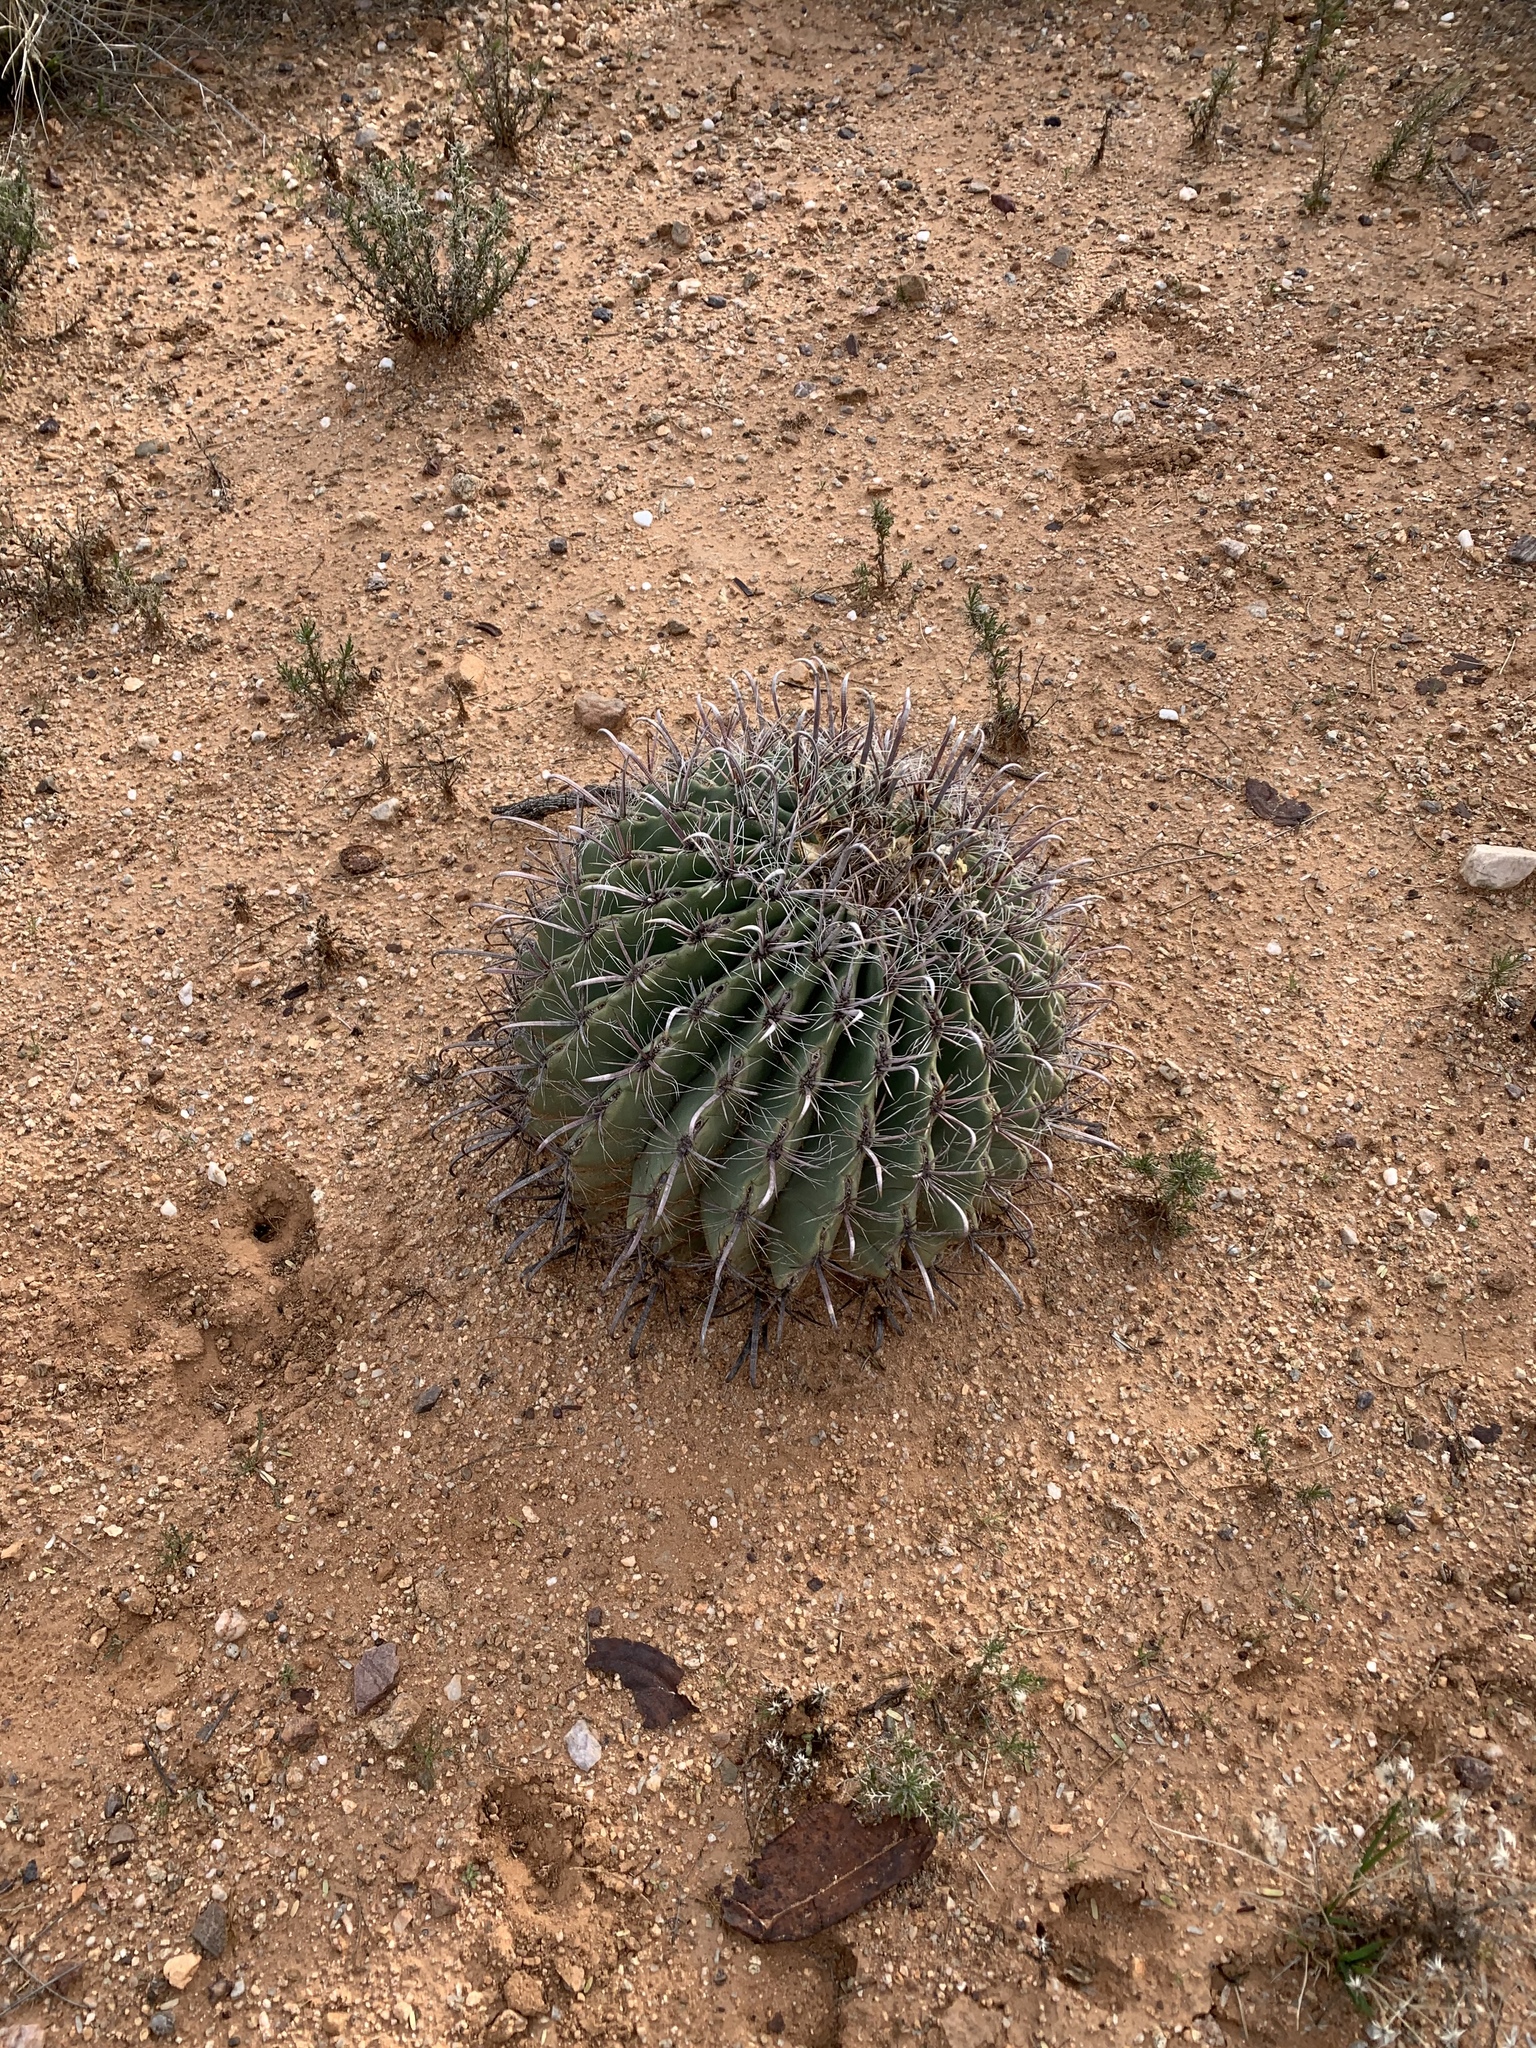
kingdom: Plantae
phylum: Tracheophyta
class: Magnoliopsida
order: Caryophyllales
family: Cactaceae
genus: Ferocactus
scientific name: Ferocactus wislizeni
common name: Candy barrel cactus
